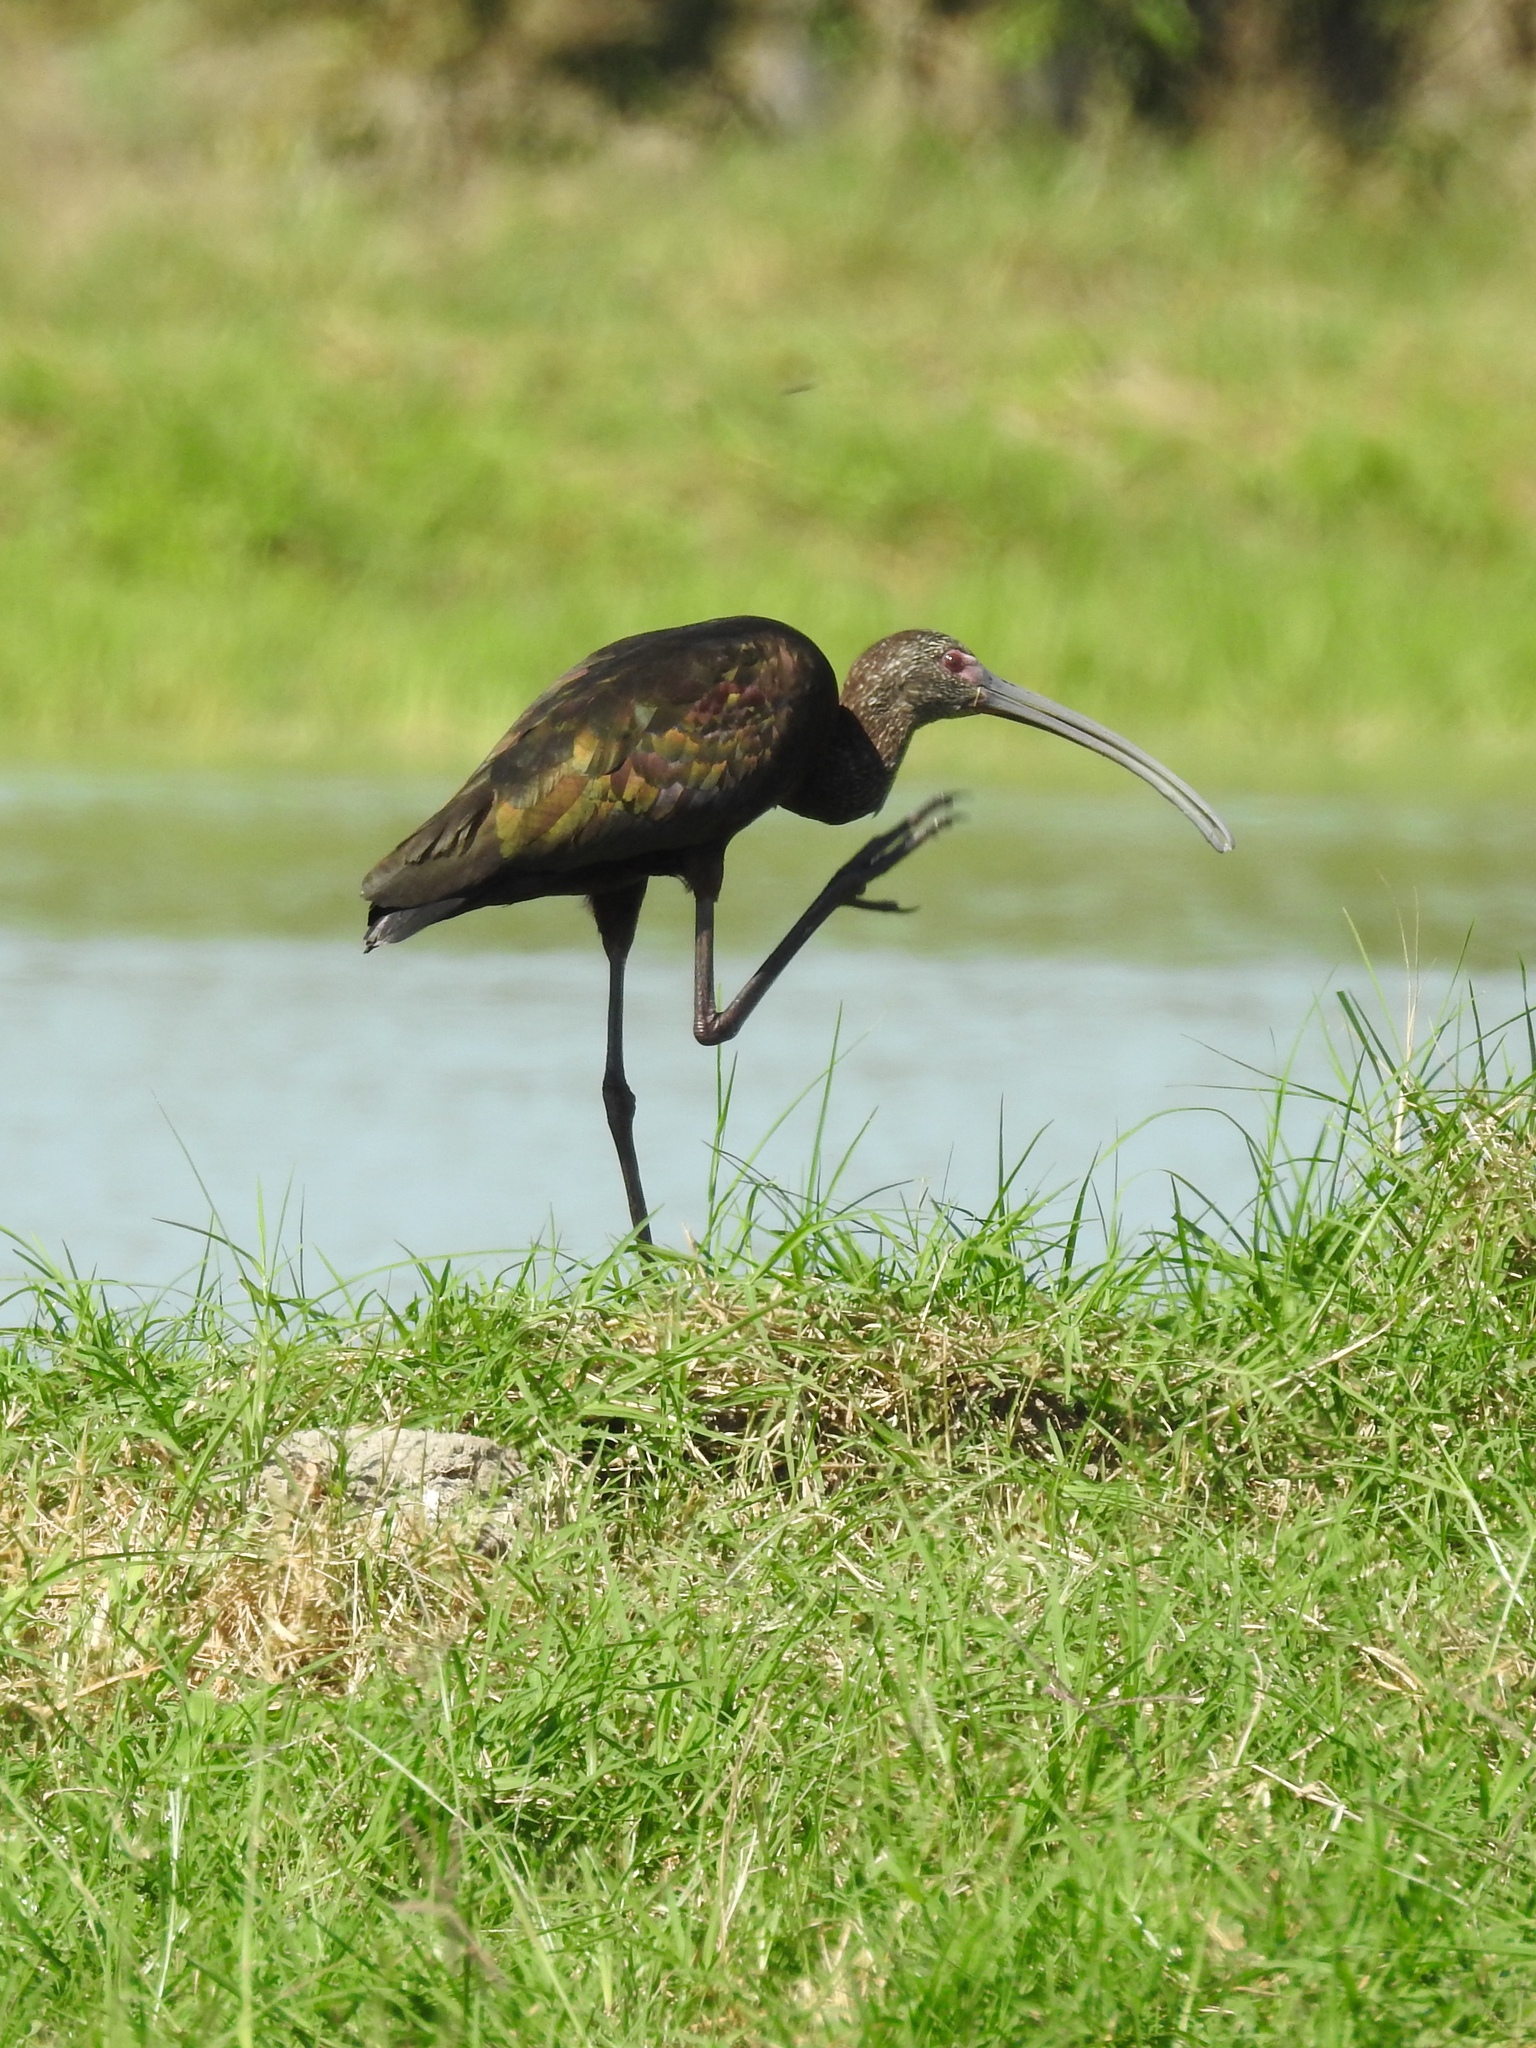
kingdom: Animalia
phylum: Chordata
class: Aves
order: Pelecaniformes
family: Threskiornithidae
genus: Plegadis
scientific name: Plegadis chihi
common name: White-faced ibis
